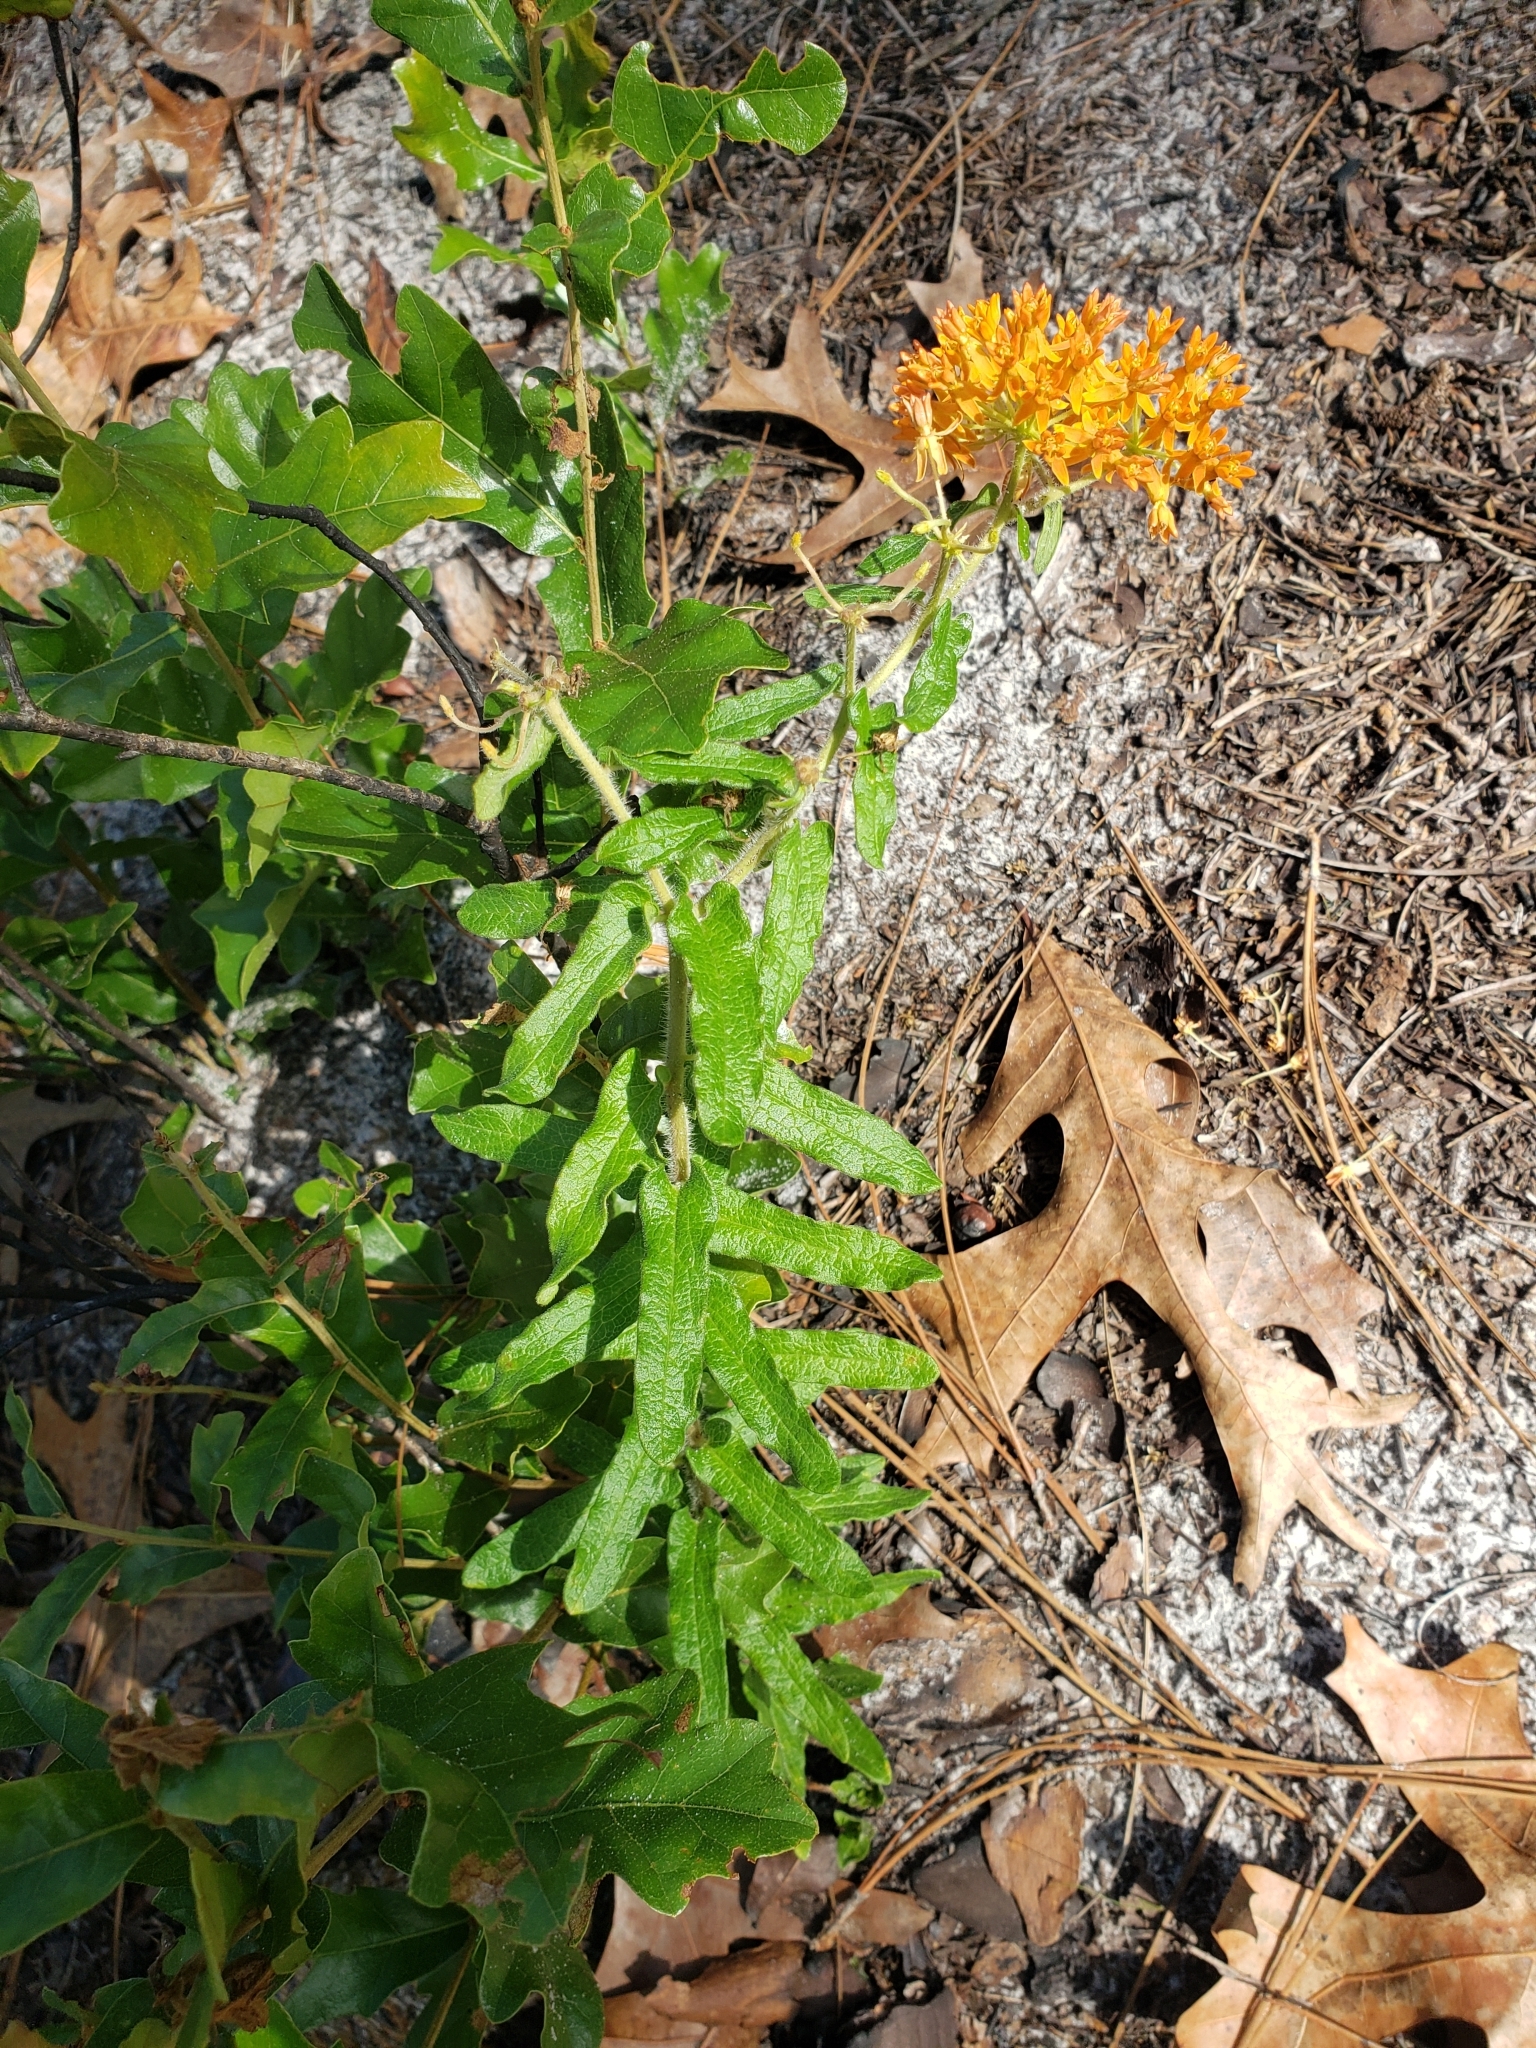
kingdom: Plantae
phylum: Tracheophyta
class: Magnoliopsida
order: Gentianales
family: Apocynaceae
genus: Asclepias
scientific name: Asclepias tuberosa
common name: Butterfly milkweed
